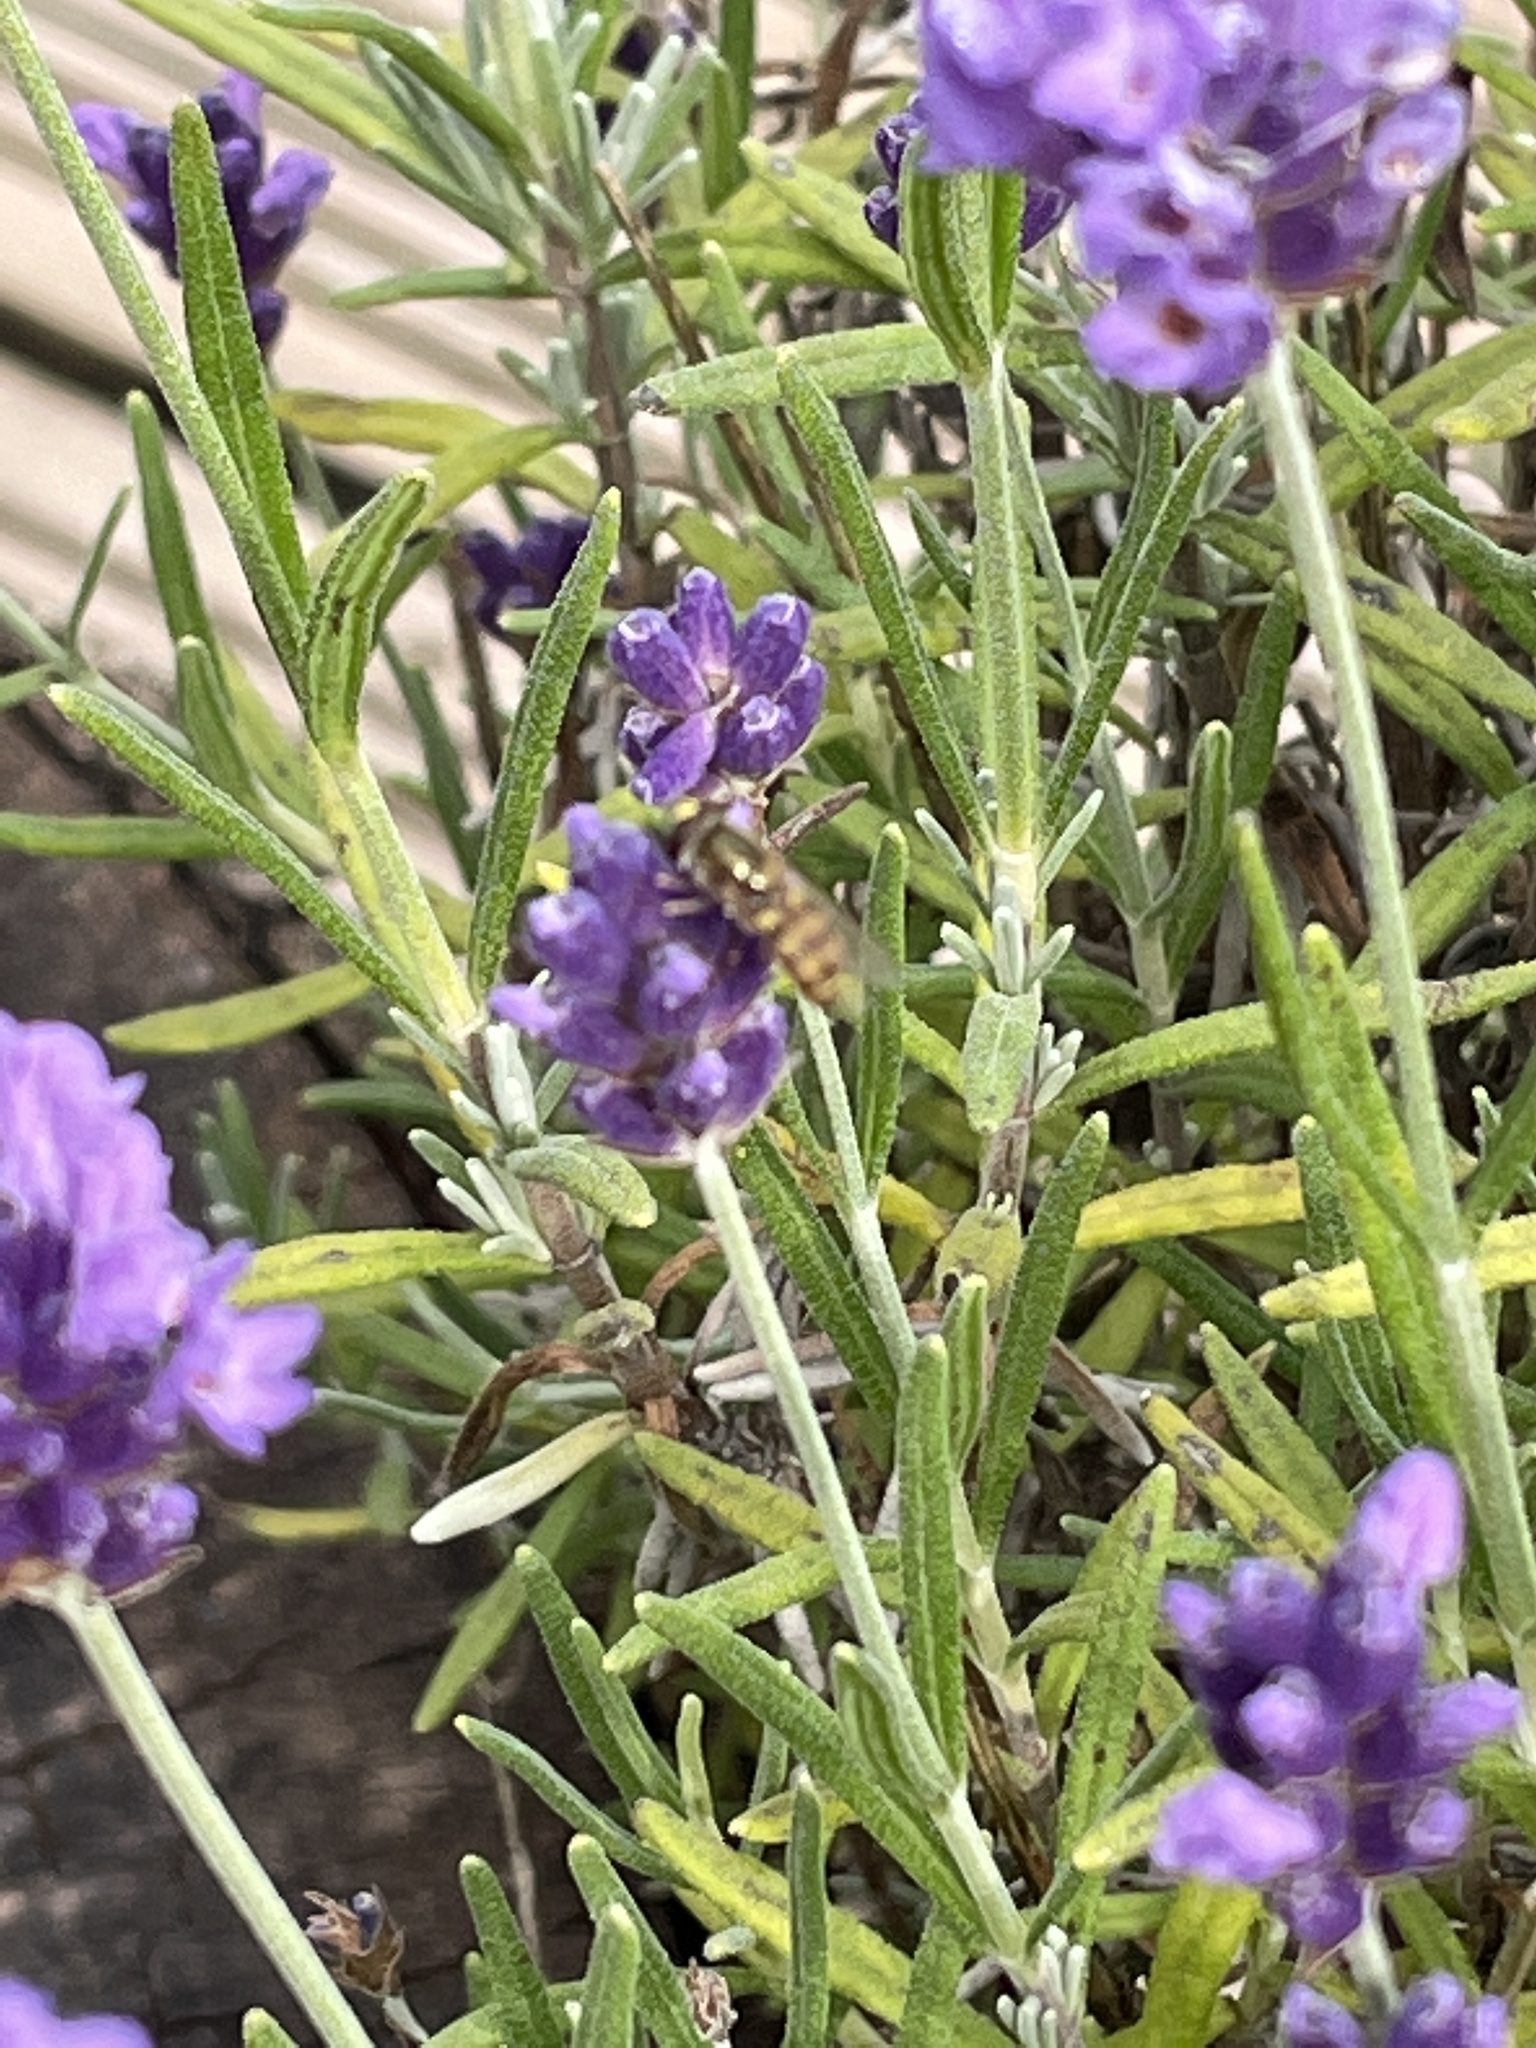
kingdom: Animalia
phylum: Arthropoda
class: Insecta
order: Diptera
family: Syrphidae
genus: Eupeodes
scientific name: Eupeodes
